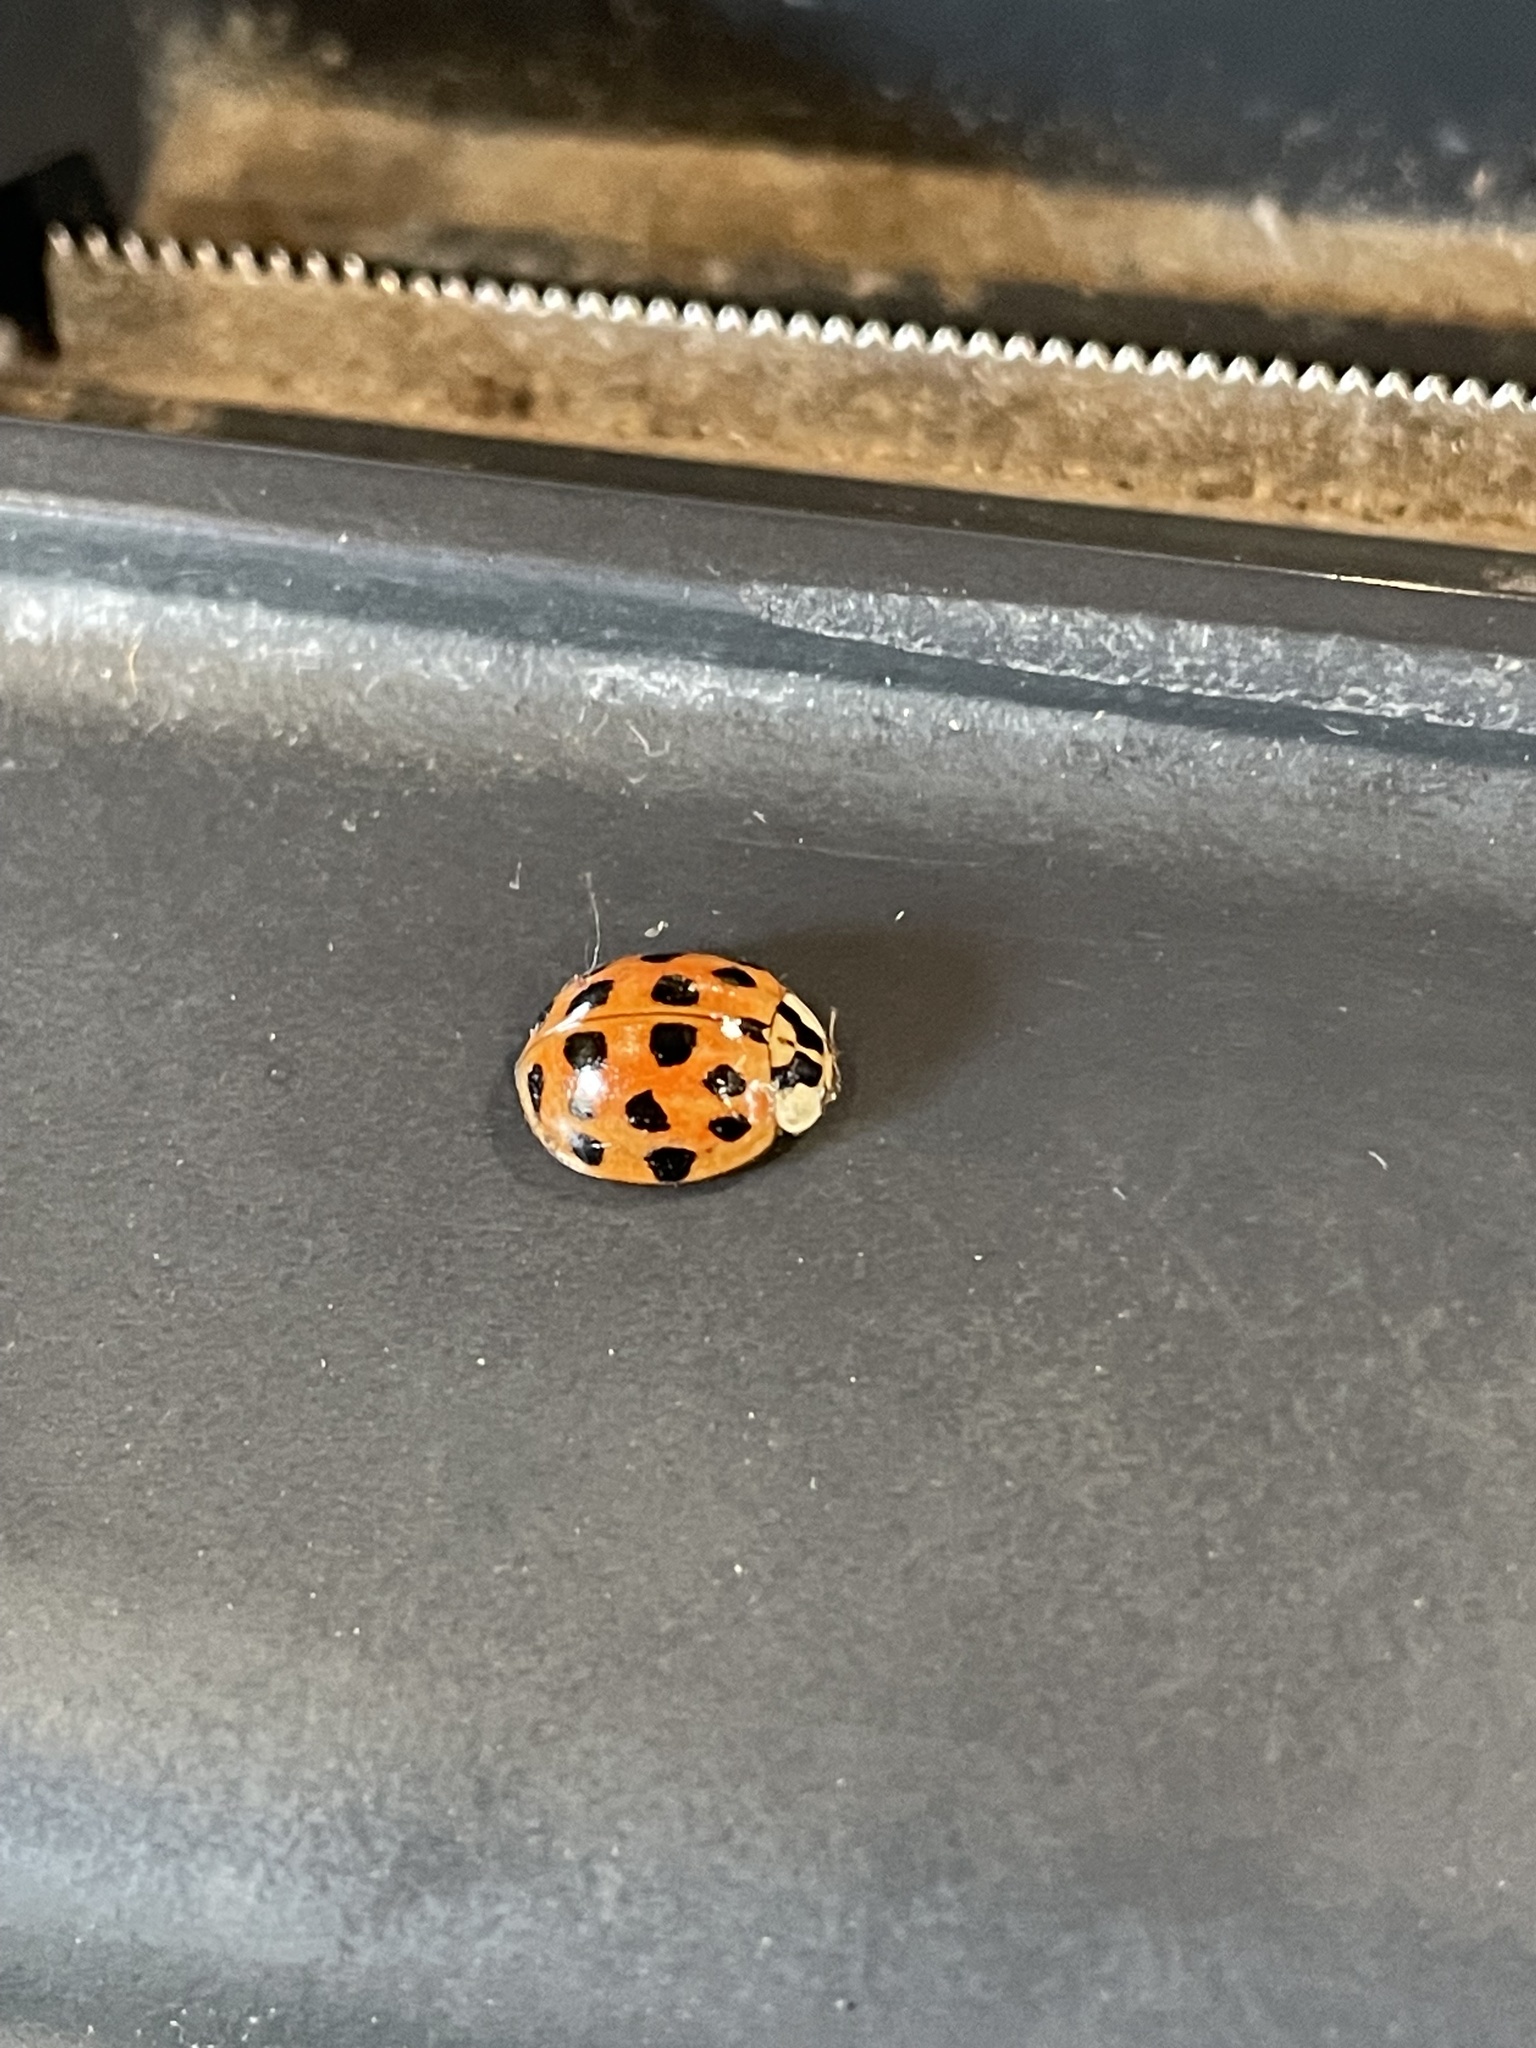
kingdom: Animalia
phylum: Arthropoda
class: Insecta
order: Coleoptera
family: Coccinellidae
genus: Harmonia
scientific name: Harmonia axyridis
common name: Harlequin ladybird
